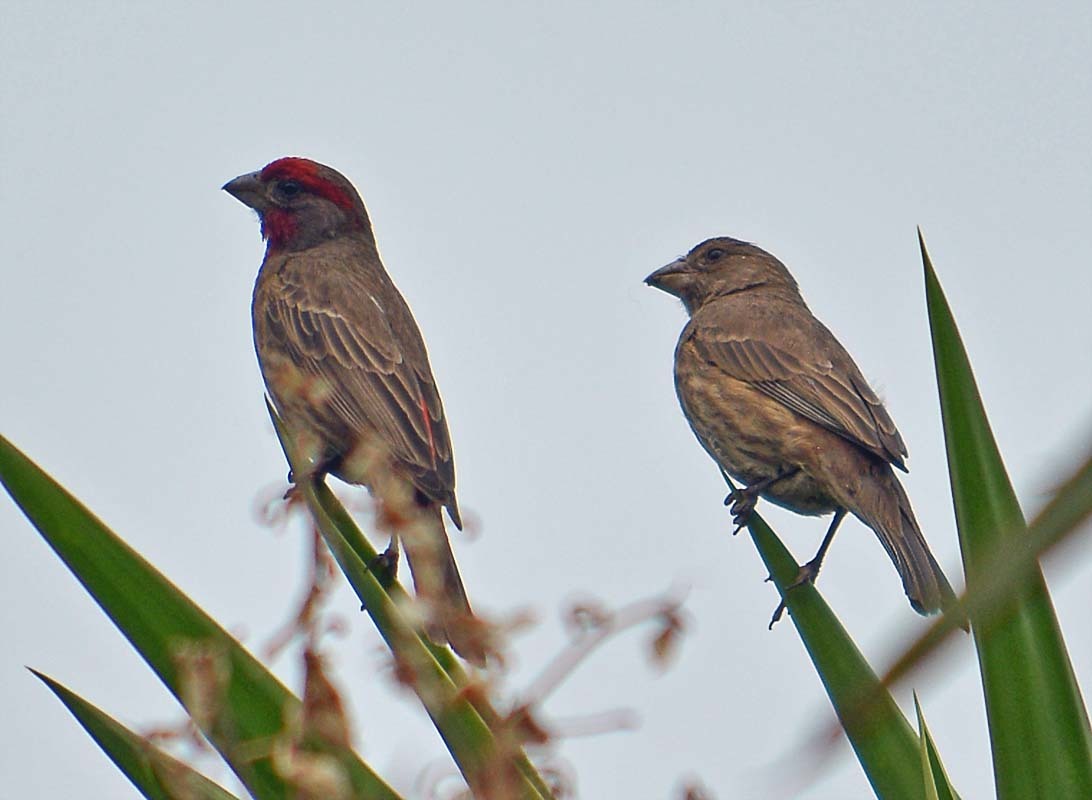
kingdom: Animalia
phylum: Chordata
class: Aves
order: Passeriformes
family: Fringillidae
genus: Haemorhous
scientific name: Haemorhous mexicanus
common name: House finch
